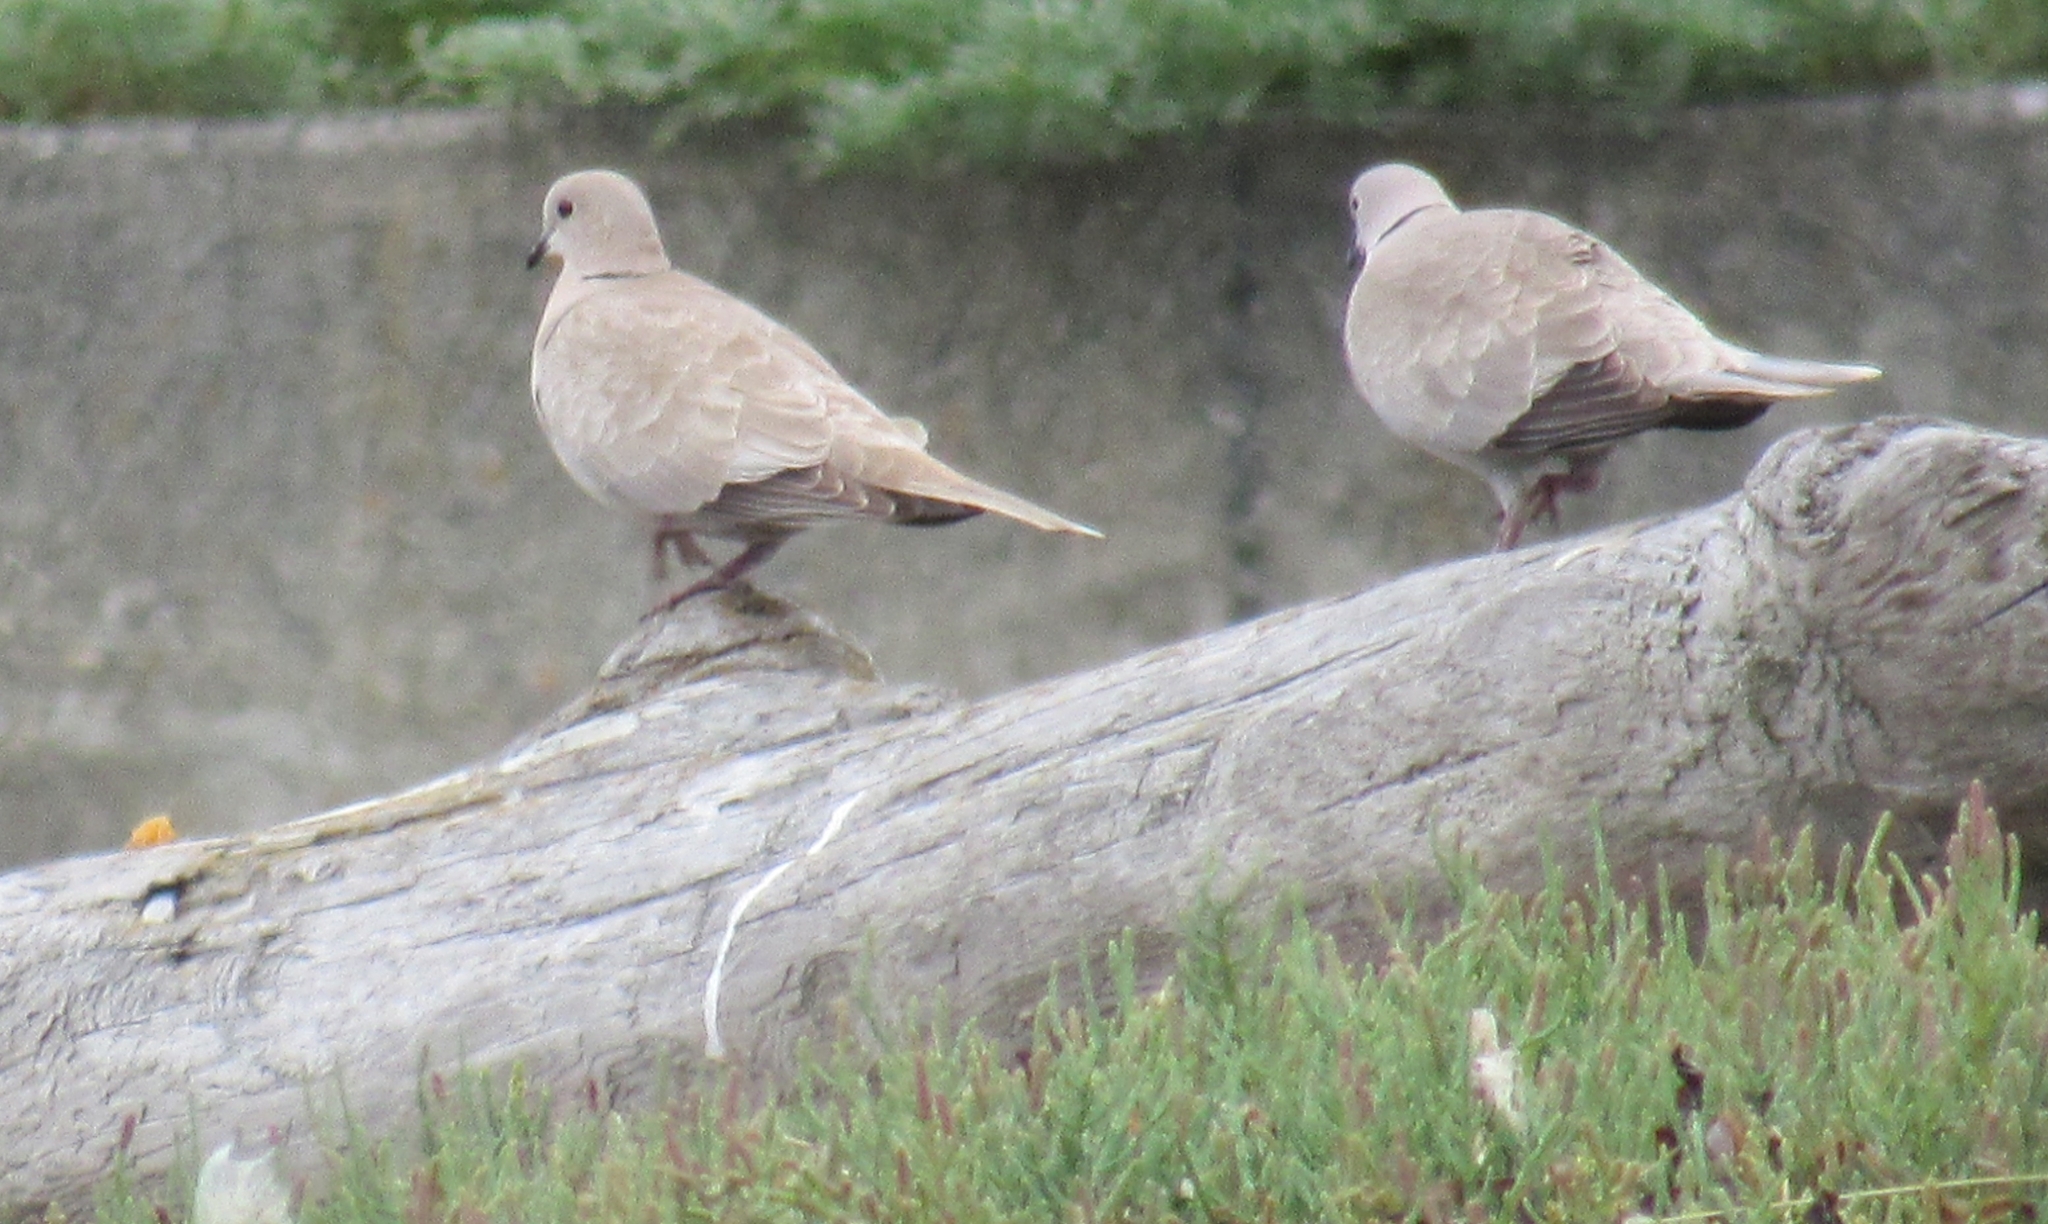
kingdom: Animalia
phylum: Chordata
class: Aves
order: Columbiformes
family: Columbidae
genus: Streptopelia
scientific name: Streptopelia decaocto
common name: Eurasian collared dove
